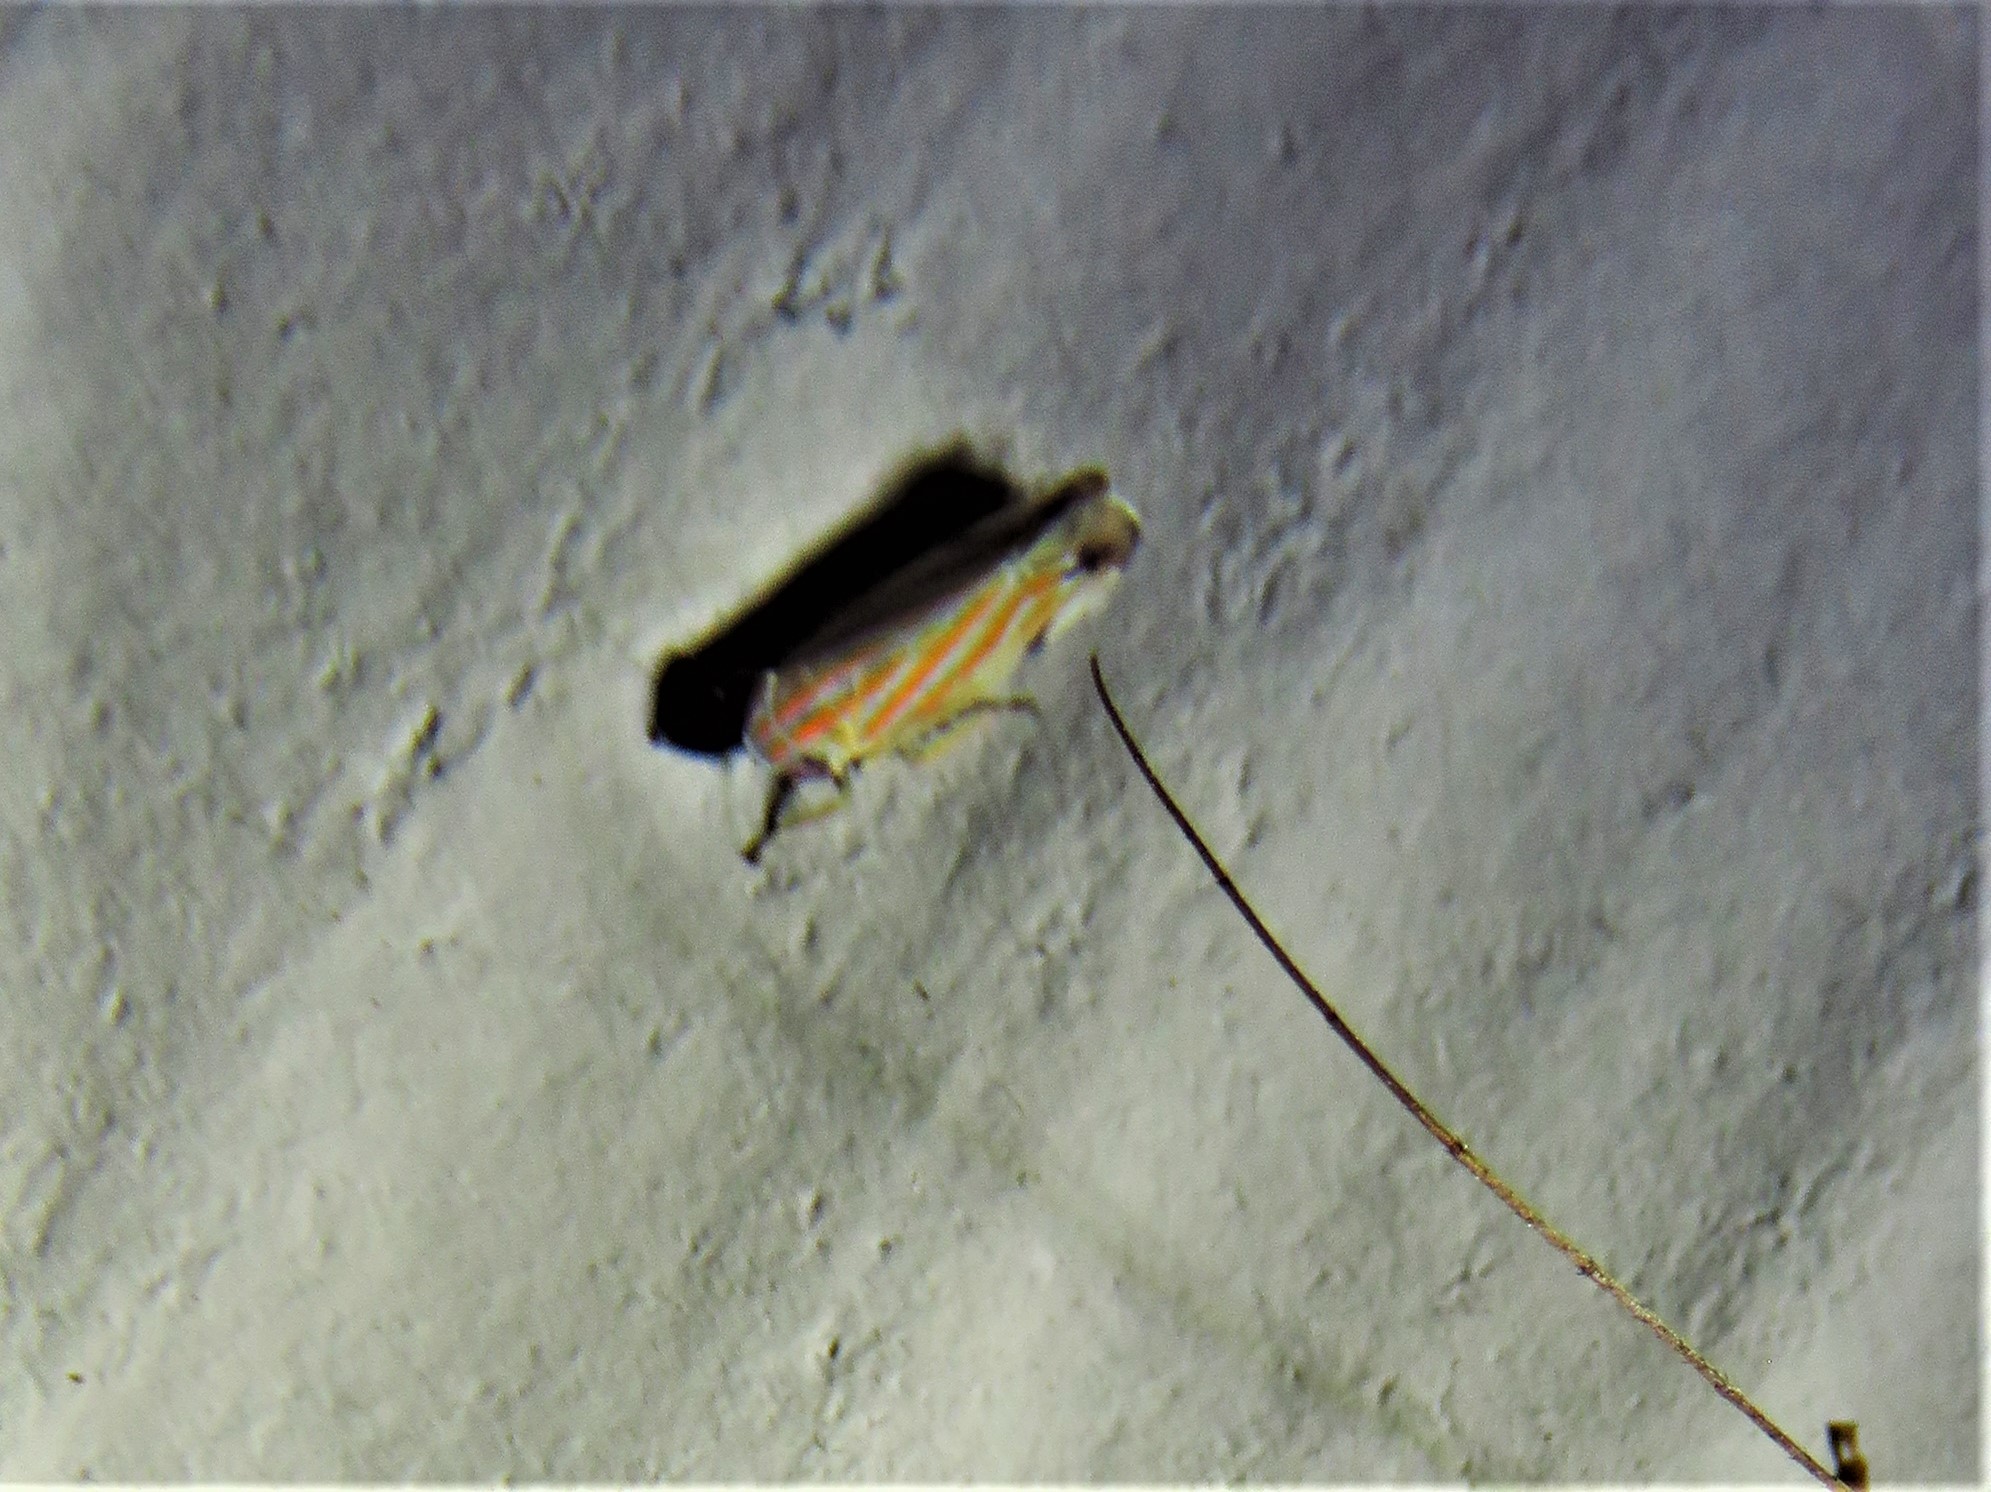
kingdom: Animalia
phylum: Arthropoda
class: Insecta
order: Hemiptera
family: Cicadellidae
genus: Deltanus
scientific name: Deltanus texanus
